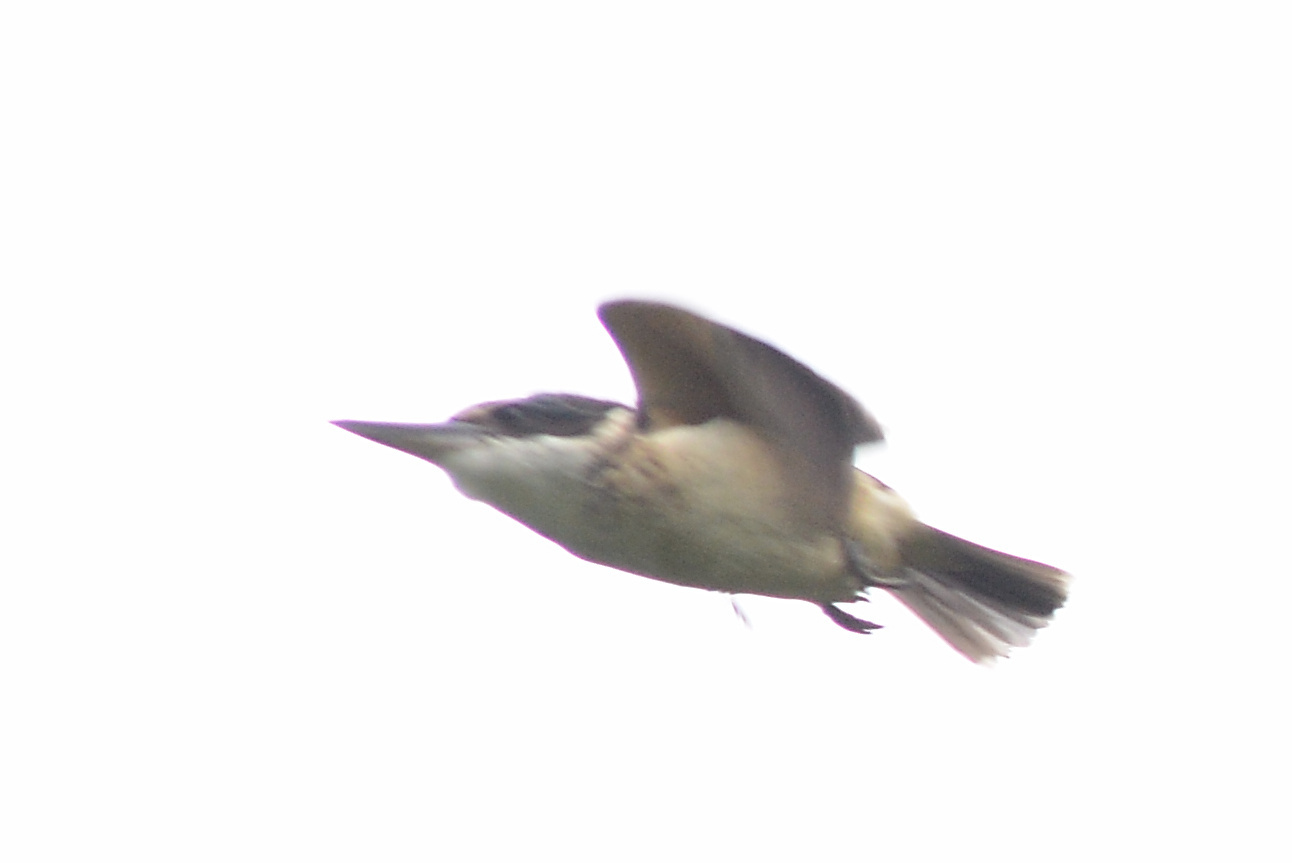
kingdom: Animalia
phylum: Chordata
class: Aves
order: Coraciiformes
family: Alcedinidae
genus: Todiramphus
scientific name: Todiramphus sanctus
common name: Sacred kingfisher
